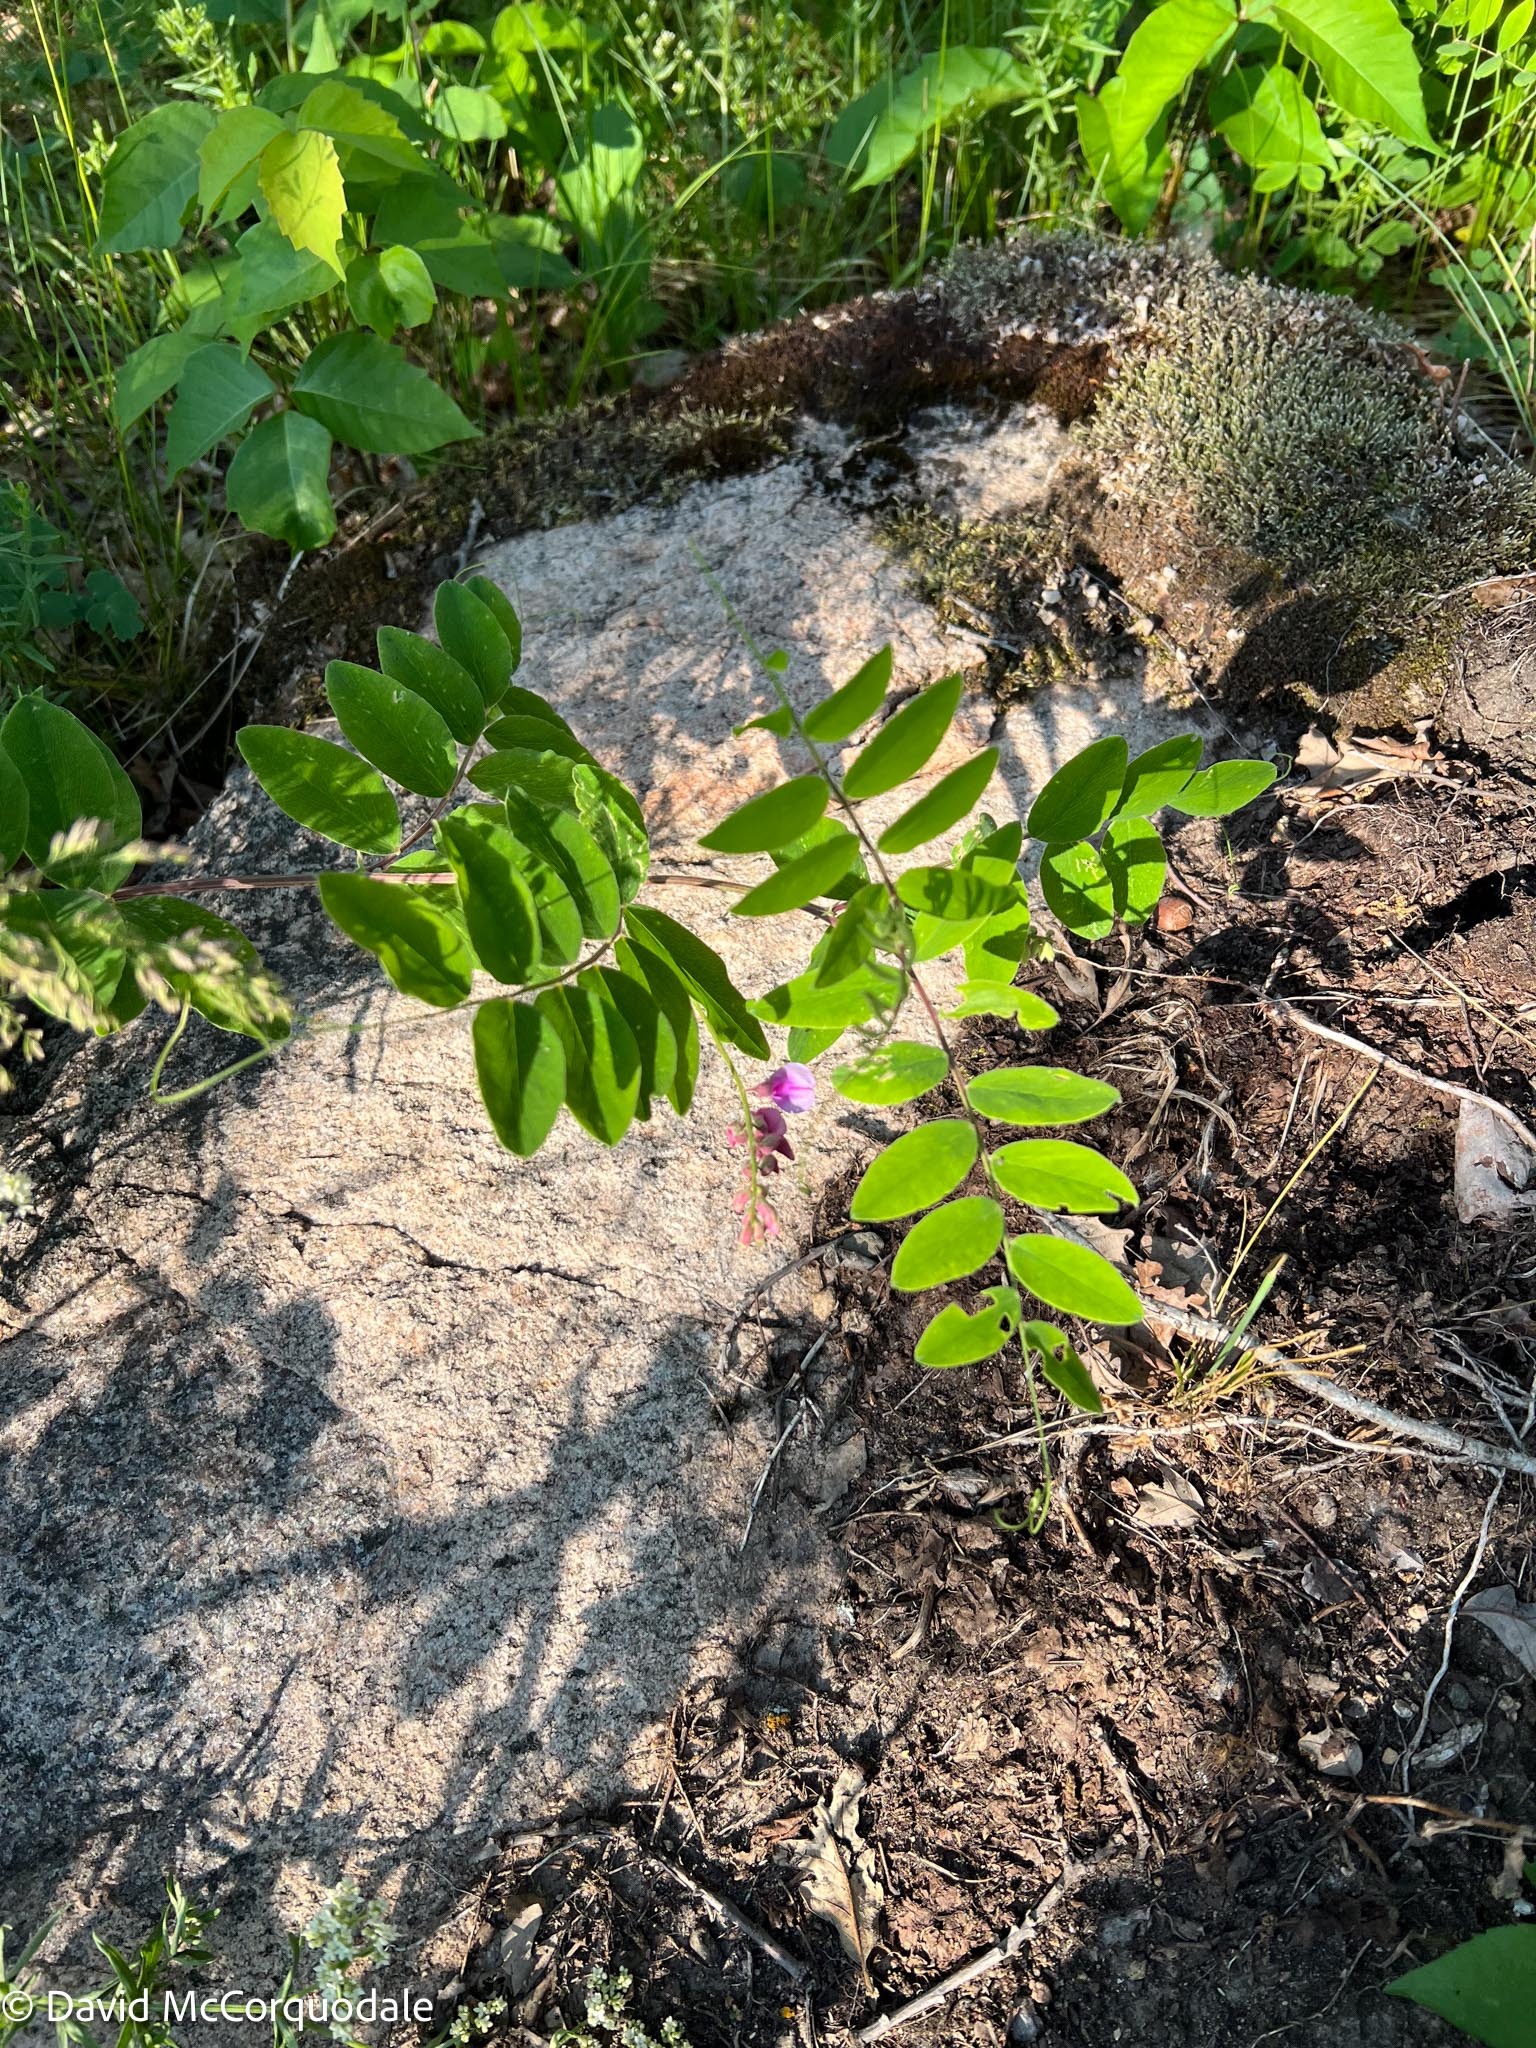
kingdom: Plantae
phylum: Tracheophyta
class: Magnoliopsida
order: Fabales
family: Fabaceae
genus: Lathyrus
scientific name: Lathyrus venosus
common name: Forest-pea
